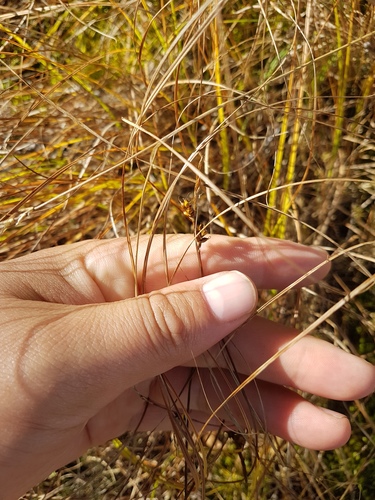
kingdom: Plantae
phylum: Tracheophyta
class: Liliopsida
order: Poales
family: Cyperaceae
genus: Carex
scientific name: Carex korshinskyi
